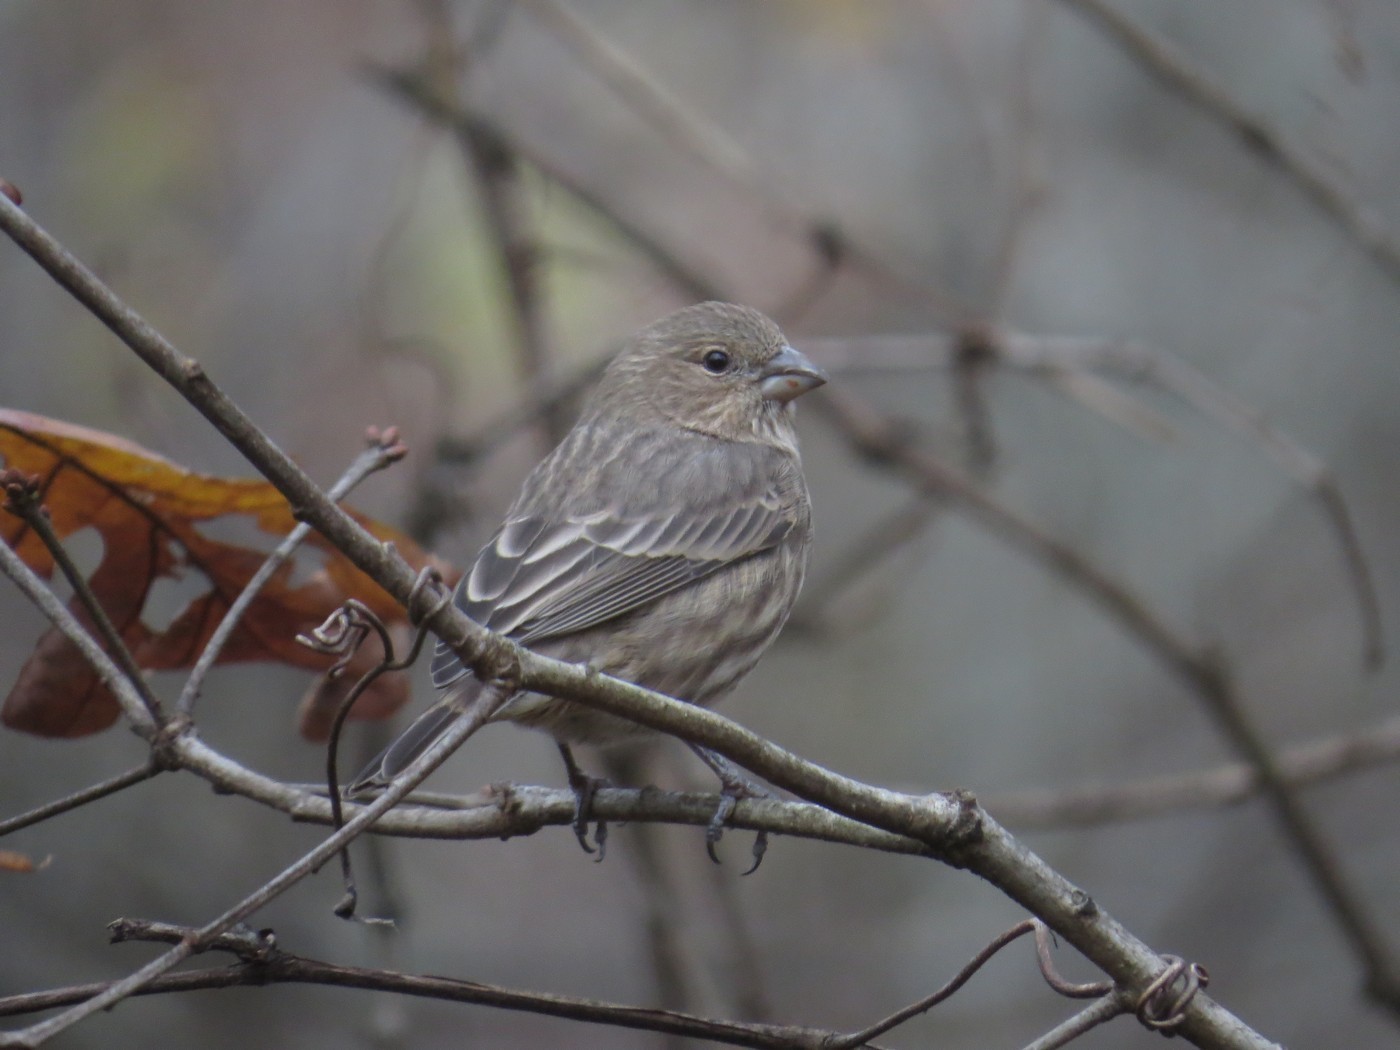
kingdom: Animalia
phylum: Chordata
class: Aves
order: Passeriformes
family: Fringillidae
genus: Haemorhous
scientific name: Haemorhous mexicanus
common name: House finch
